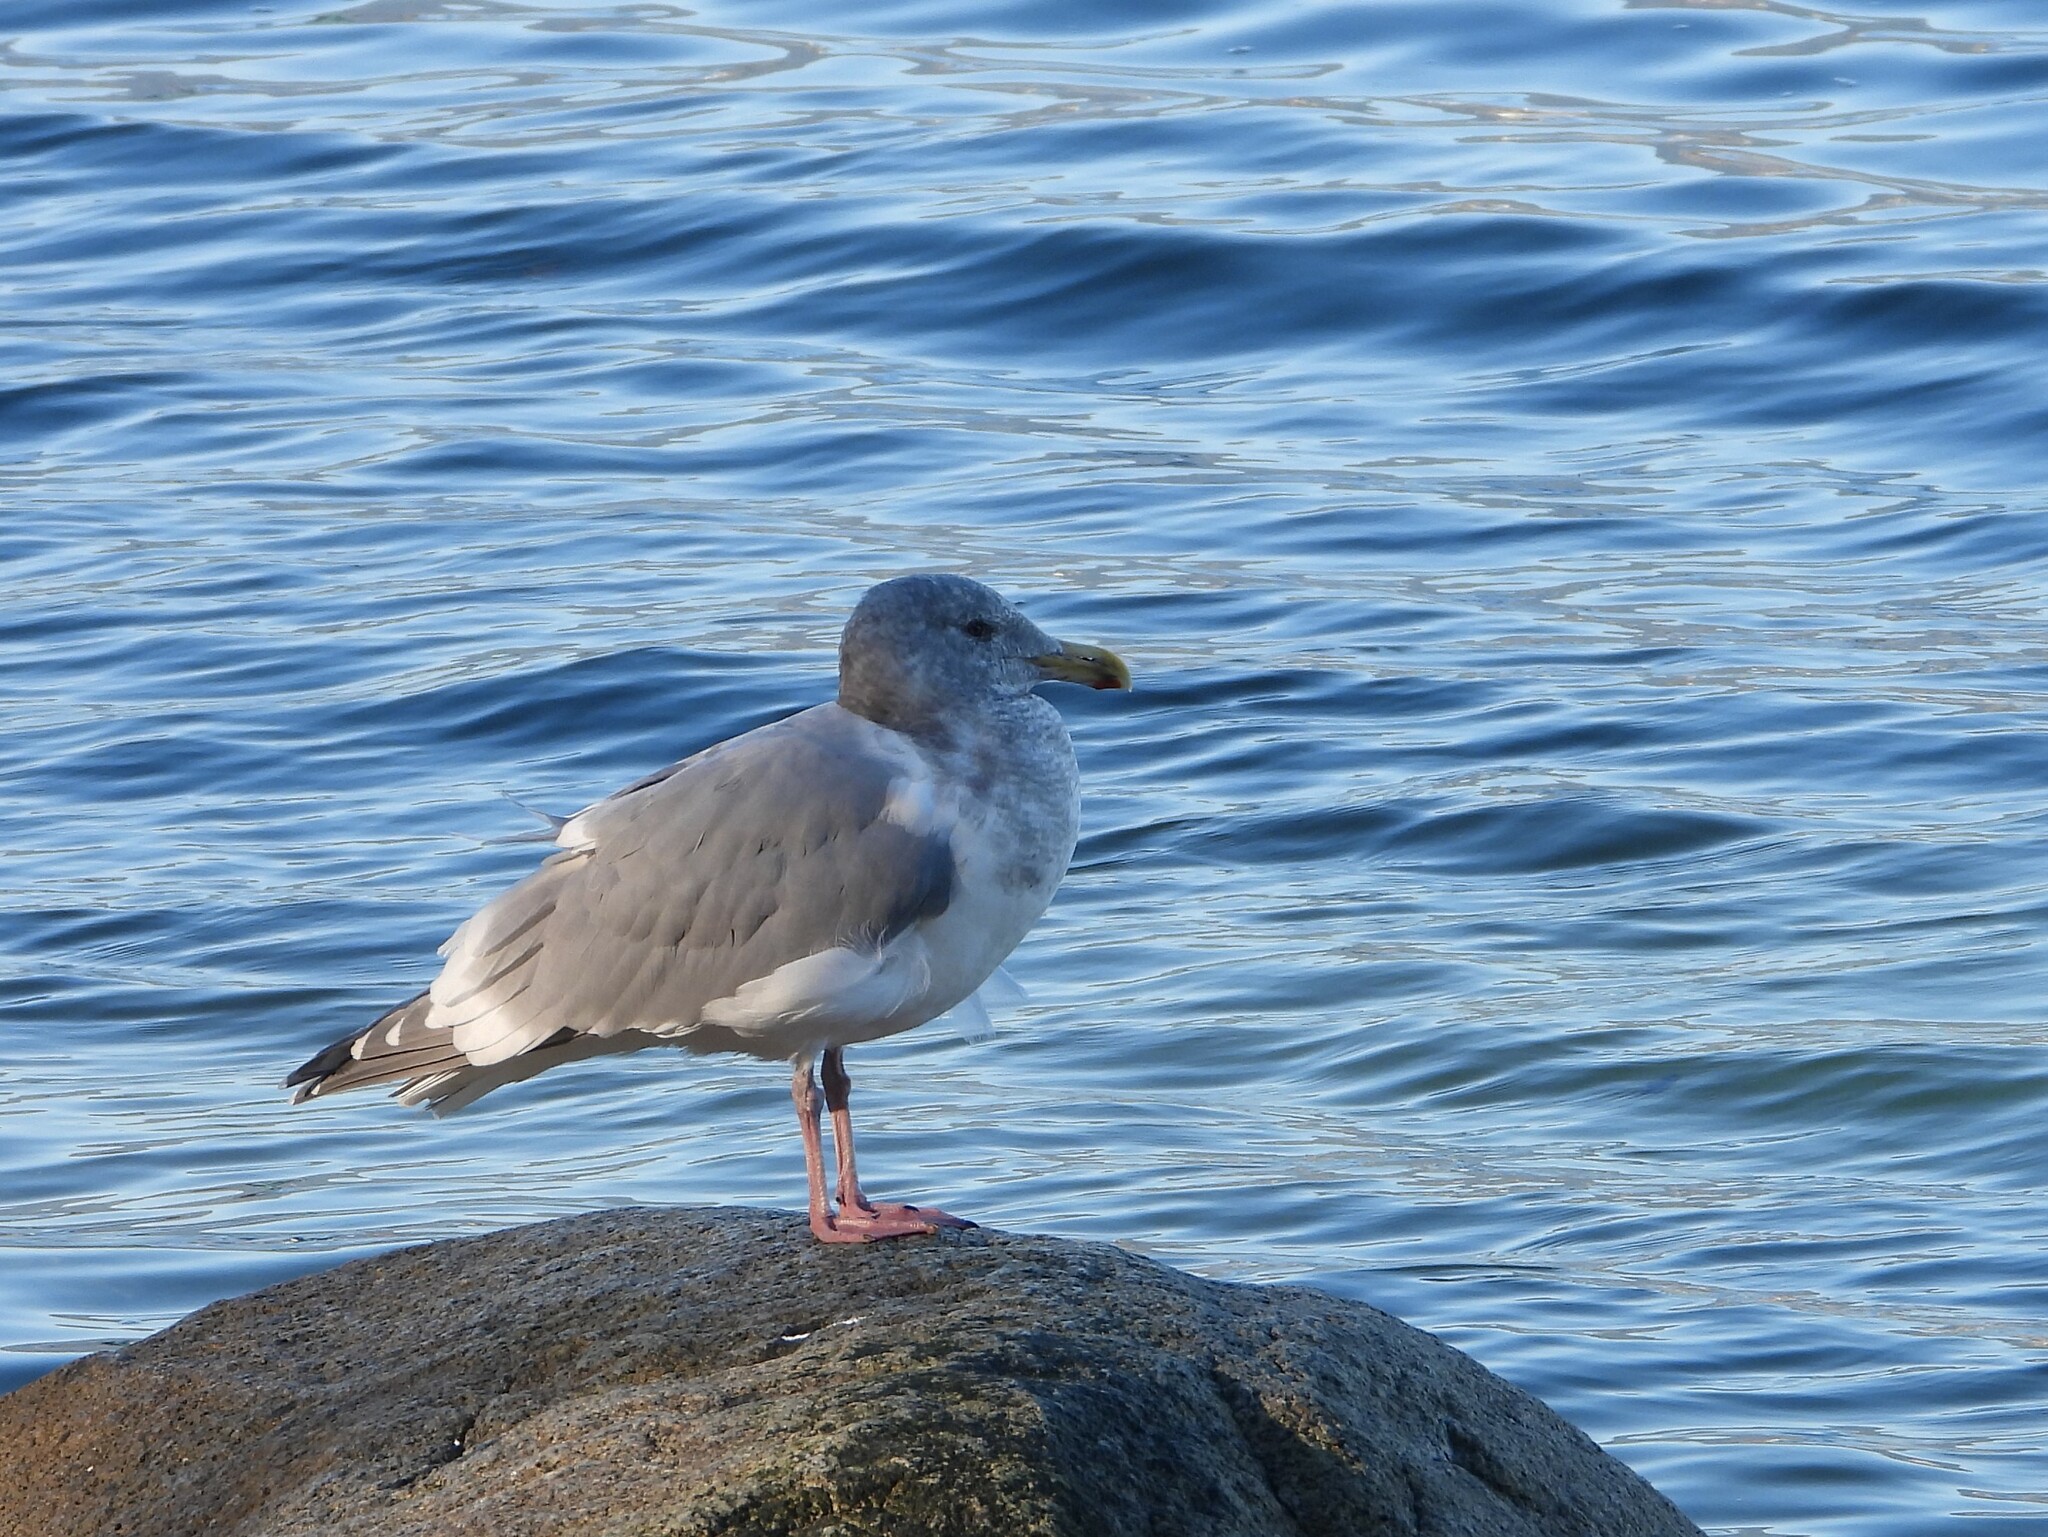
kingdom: Animalia
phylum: Chordata
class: Aves
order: Charadriiformes
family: Laridae
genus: Larus
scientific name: Larus
